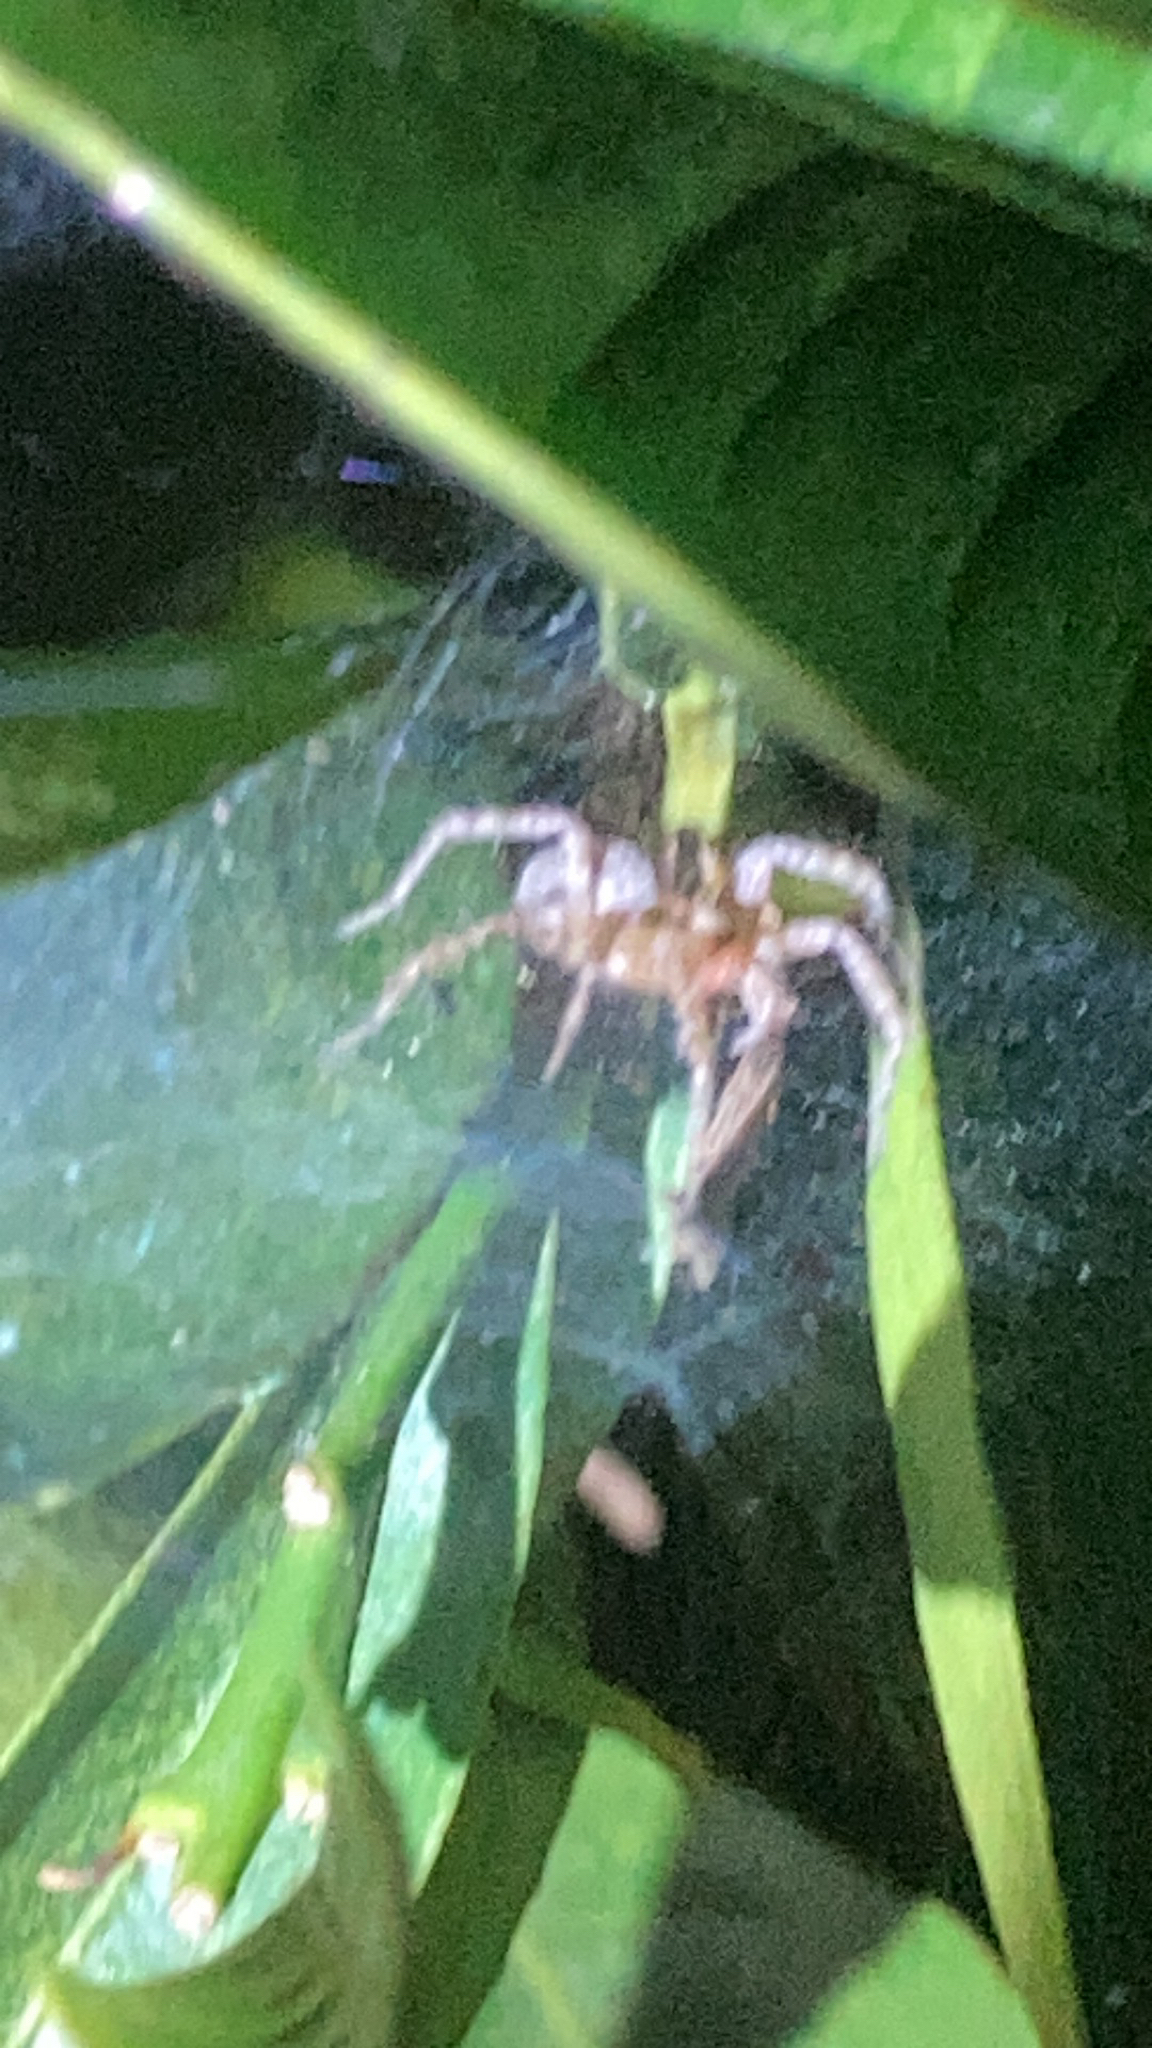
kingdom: Animalia
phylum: Arthropoda
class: Arachnida
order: Araneae
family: Agelenidae
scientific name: Agelenidae
